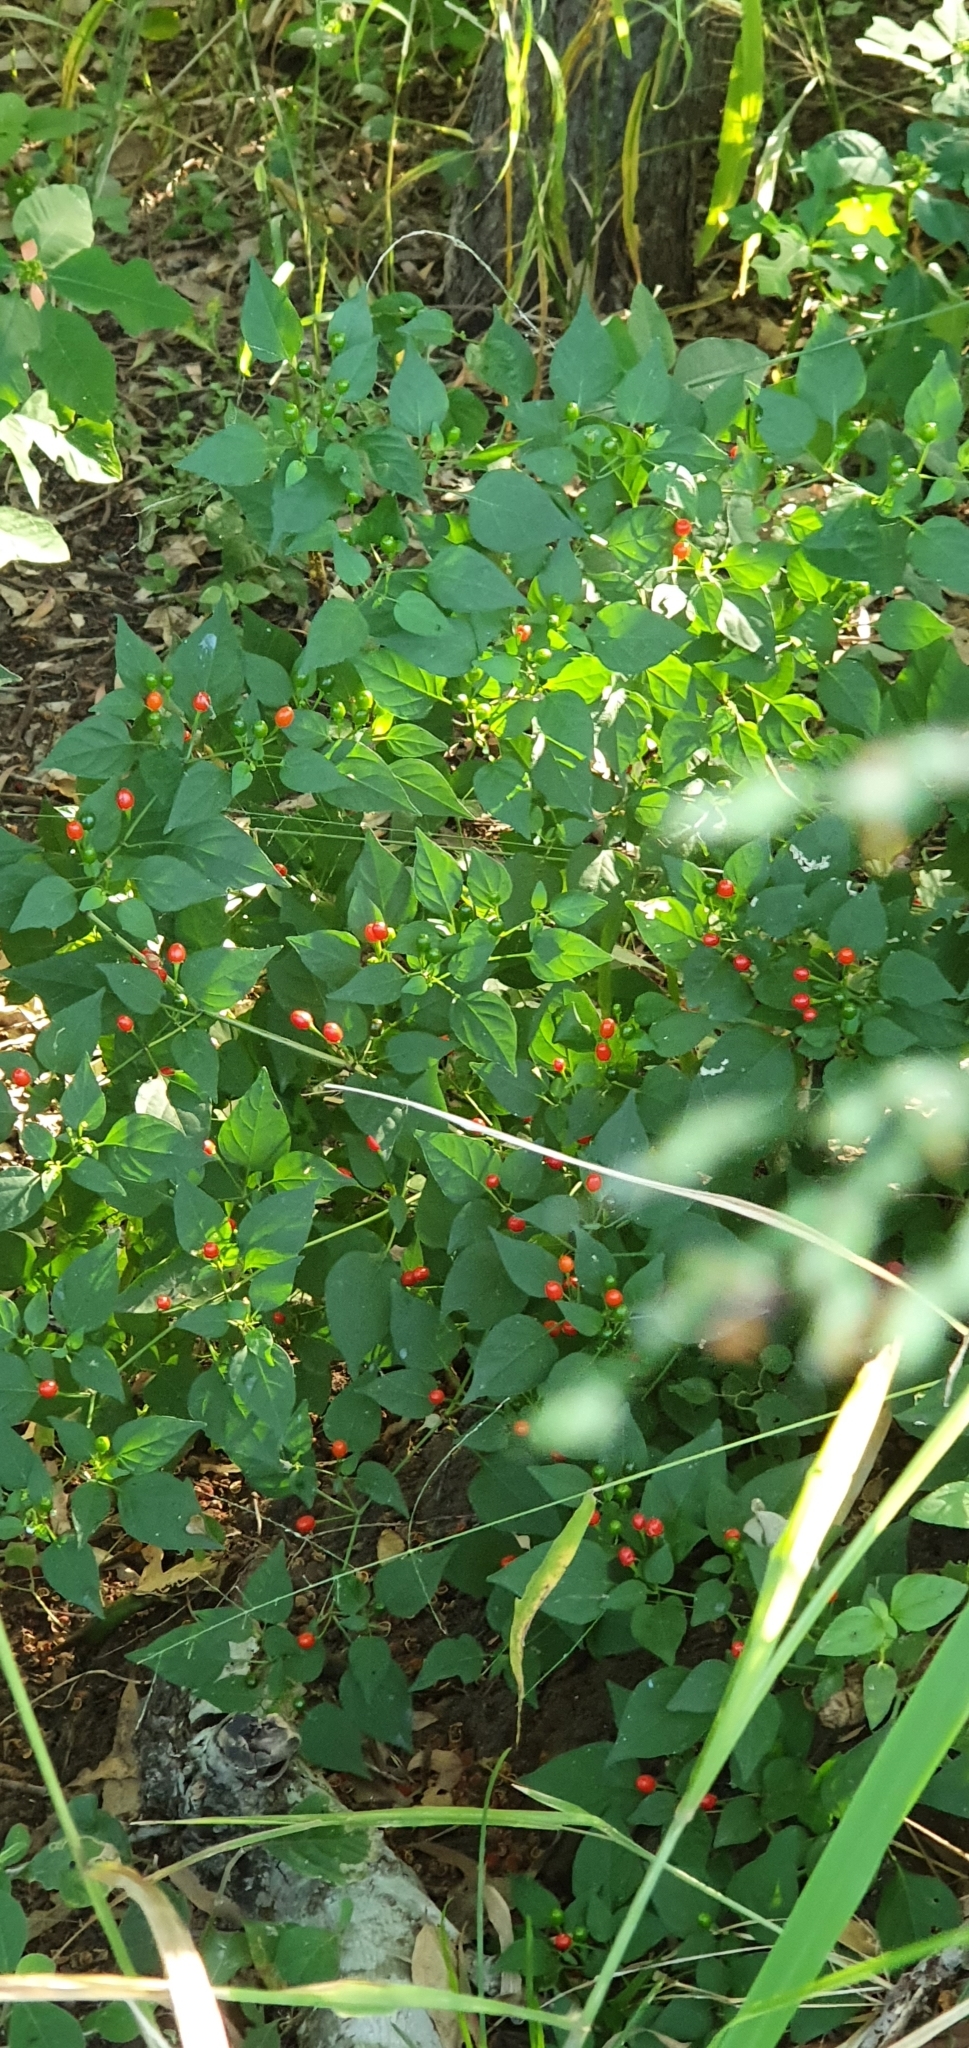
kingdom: Plantae
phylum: Tracheophyta
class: Magnoliopsida
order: Solanales
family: Solanaceae
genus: Capsicum
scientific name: Capsicum annuum
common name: Sweet pepper
